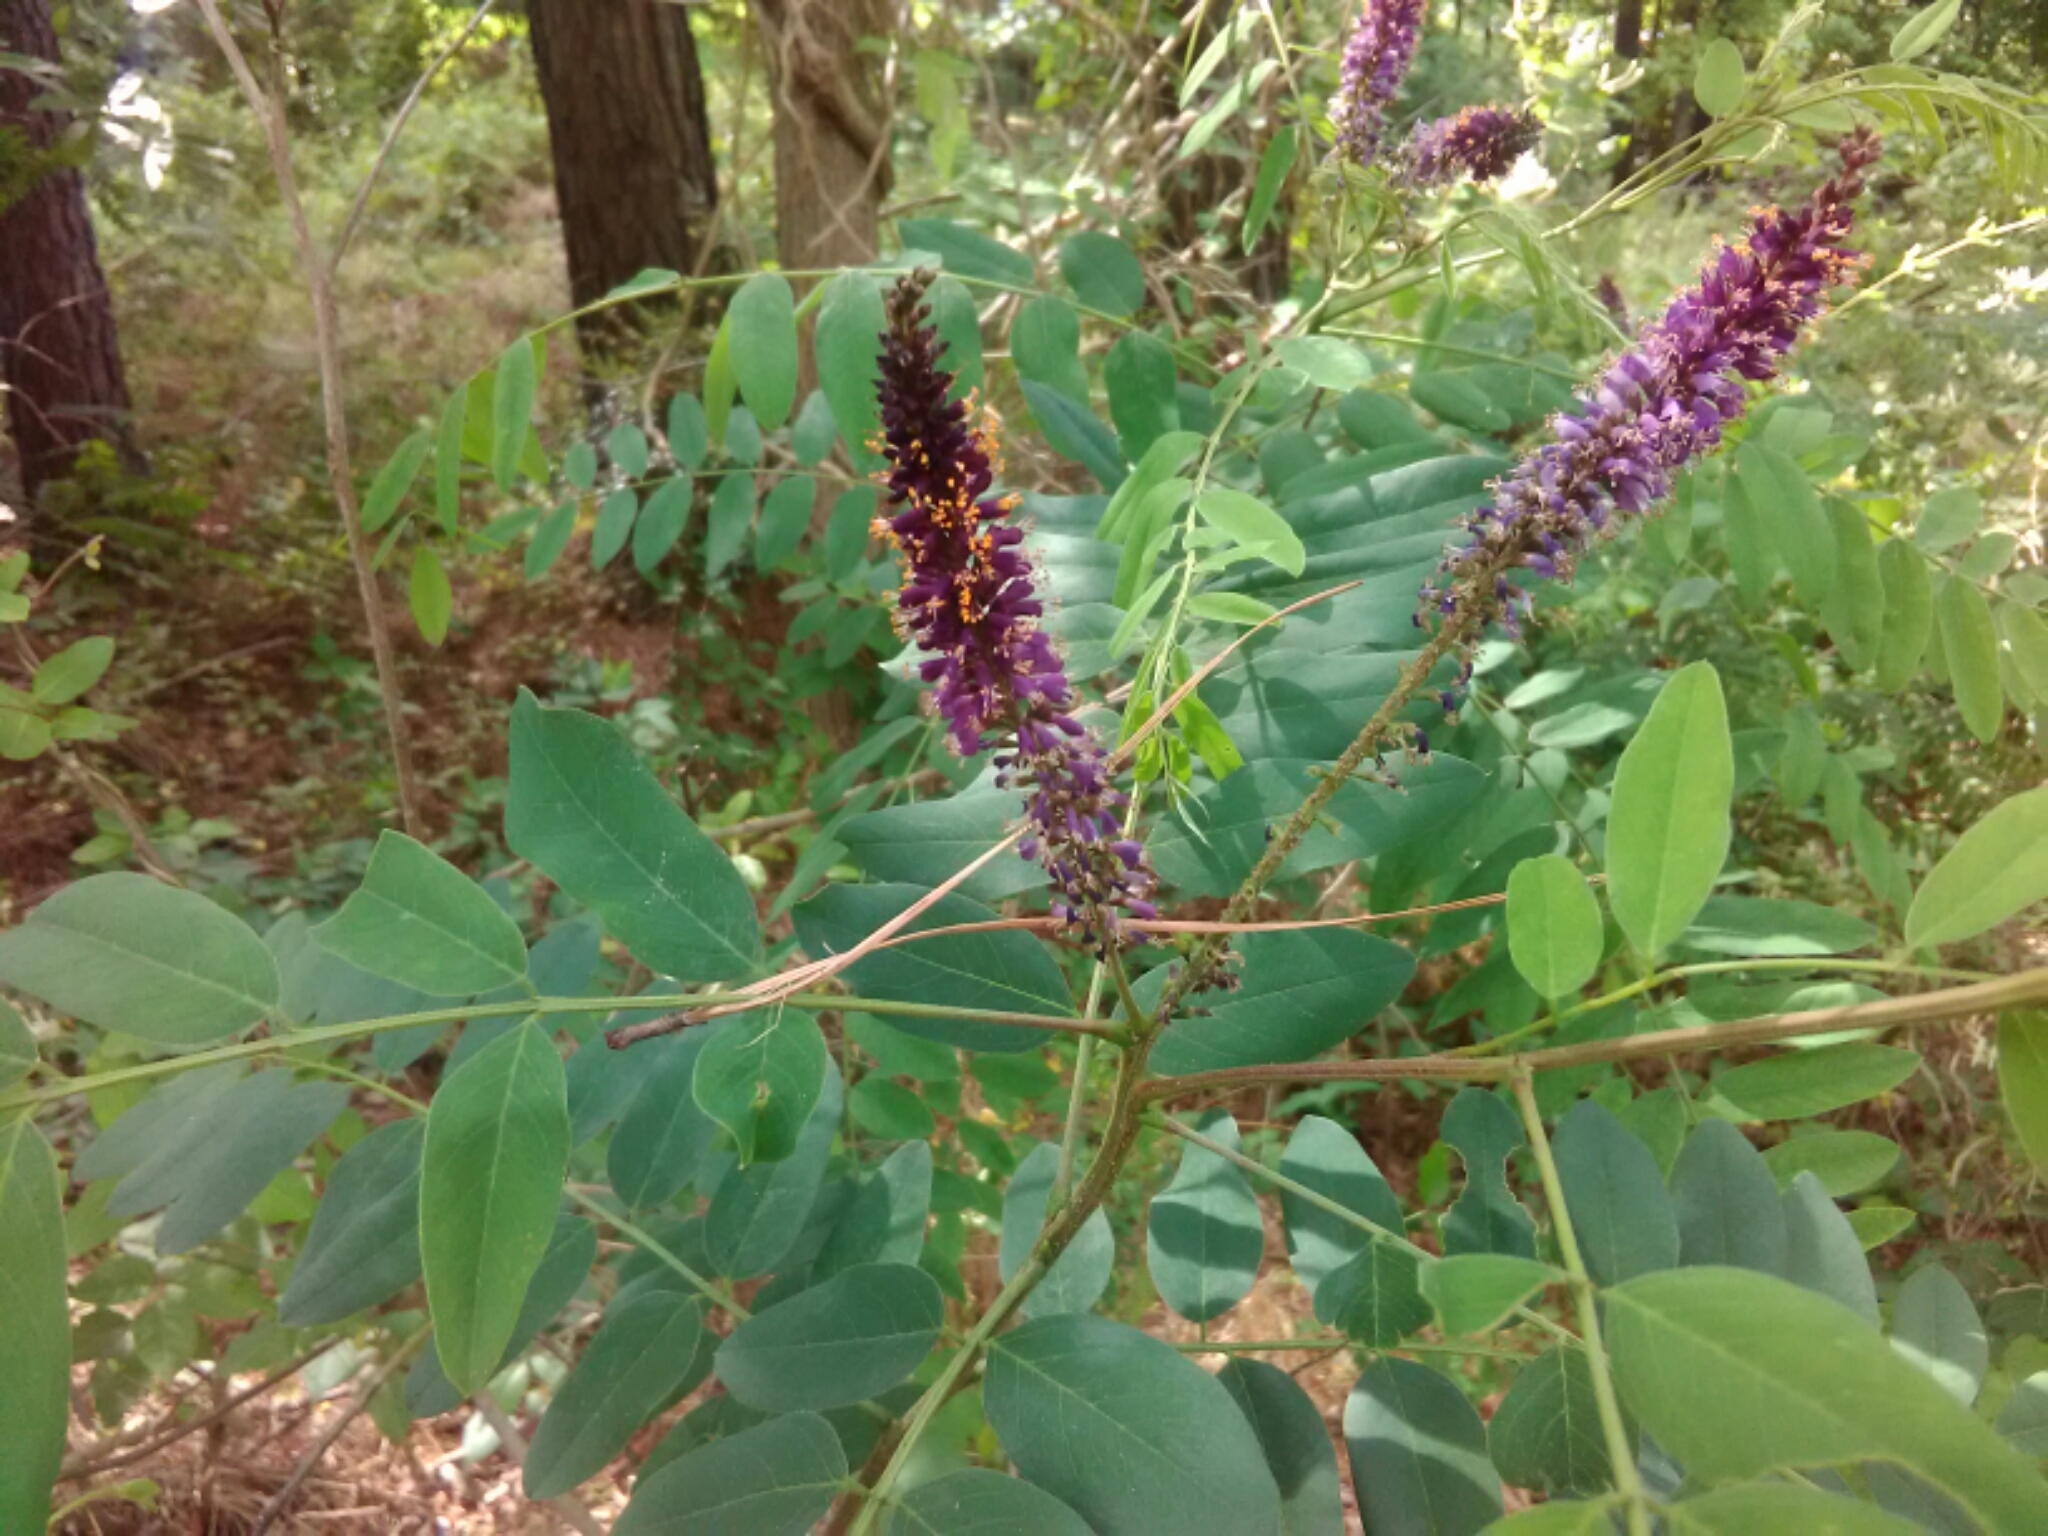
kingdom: Plantae
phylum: Tracheophyta
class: Magnoliopsida
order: Fabales
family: Fabaceae
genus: Amorpha
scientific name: Amorpha fruticosa
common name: False indigo
